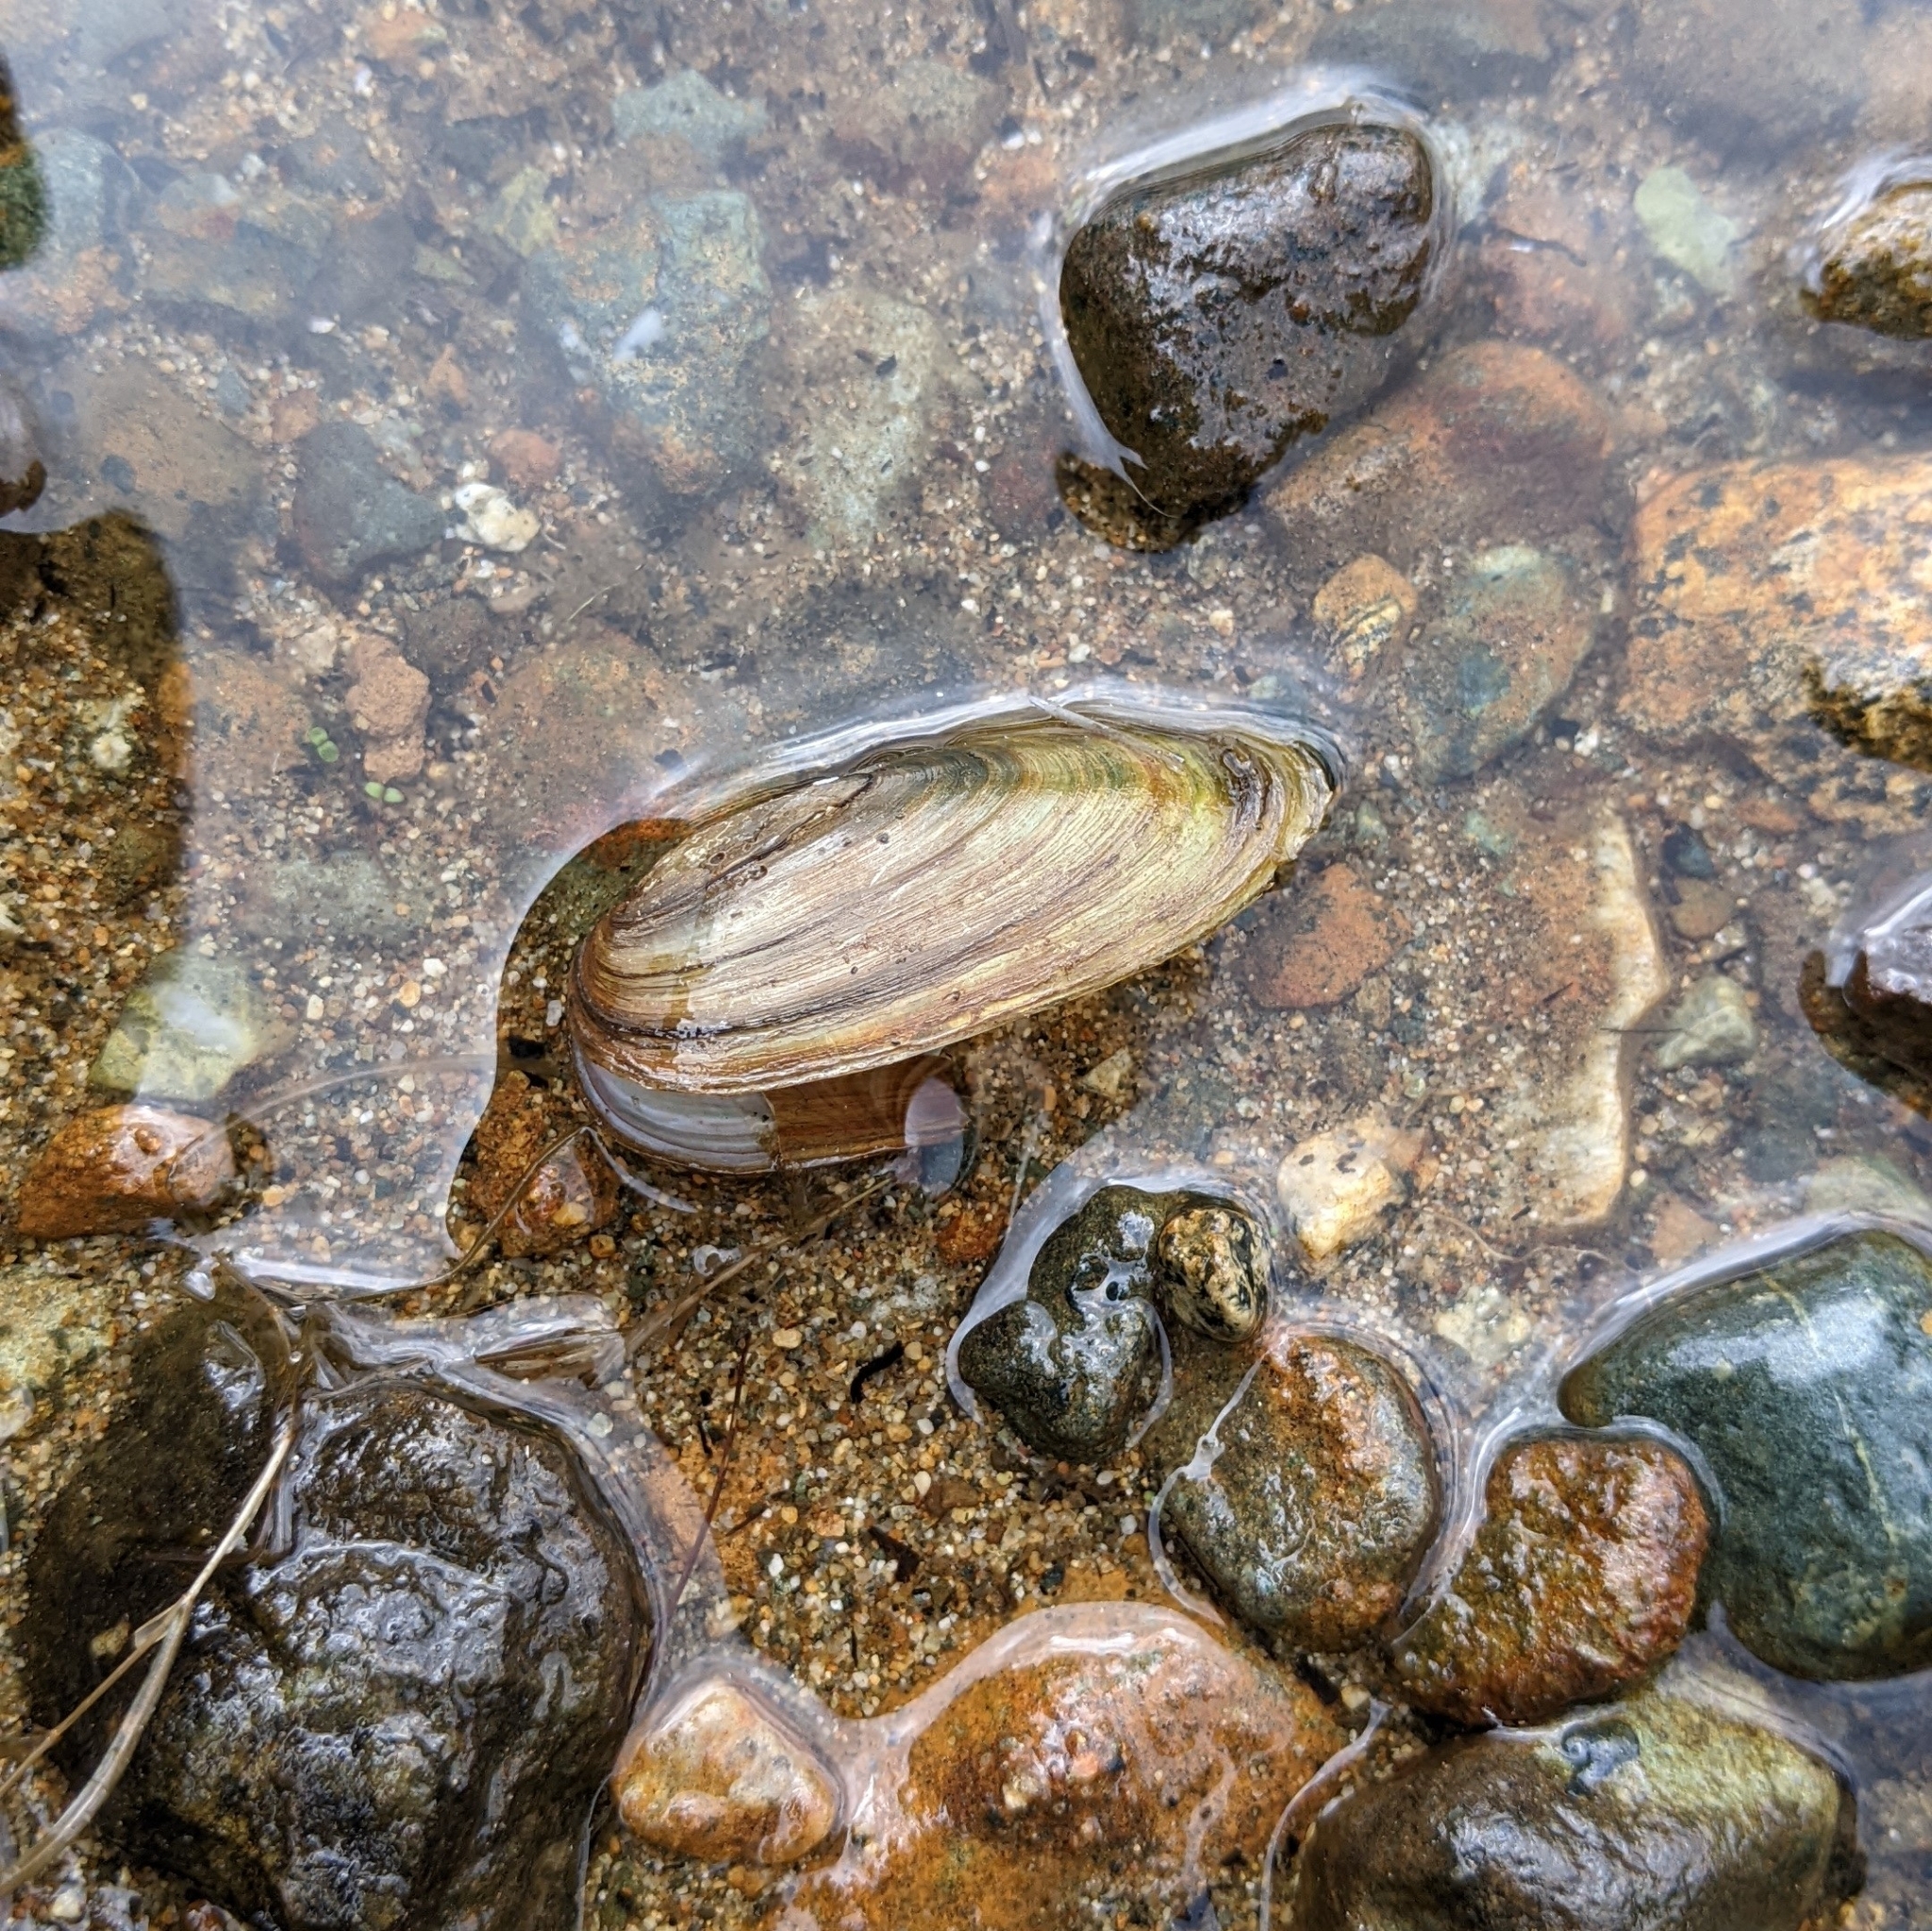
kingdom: Animalia
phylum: Mollusca
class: Bivalvia
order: Unionida
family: Unionidae
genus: Anodonta
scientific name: Anodonta kennerlyi
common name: Western floater
